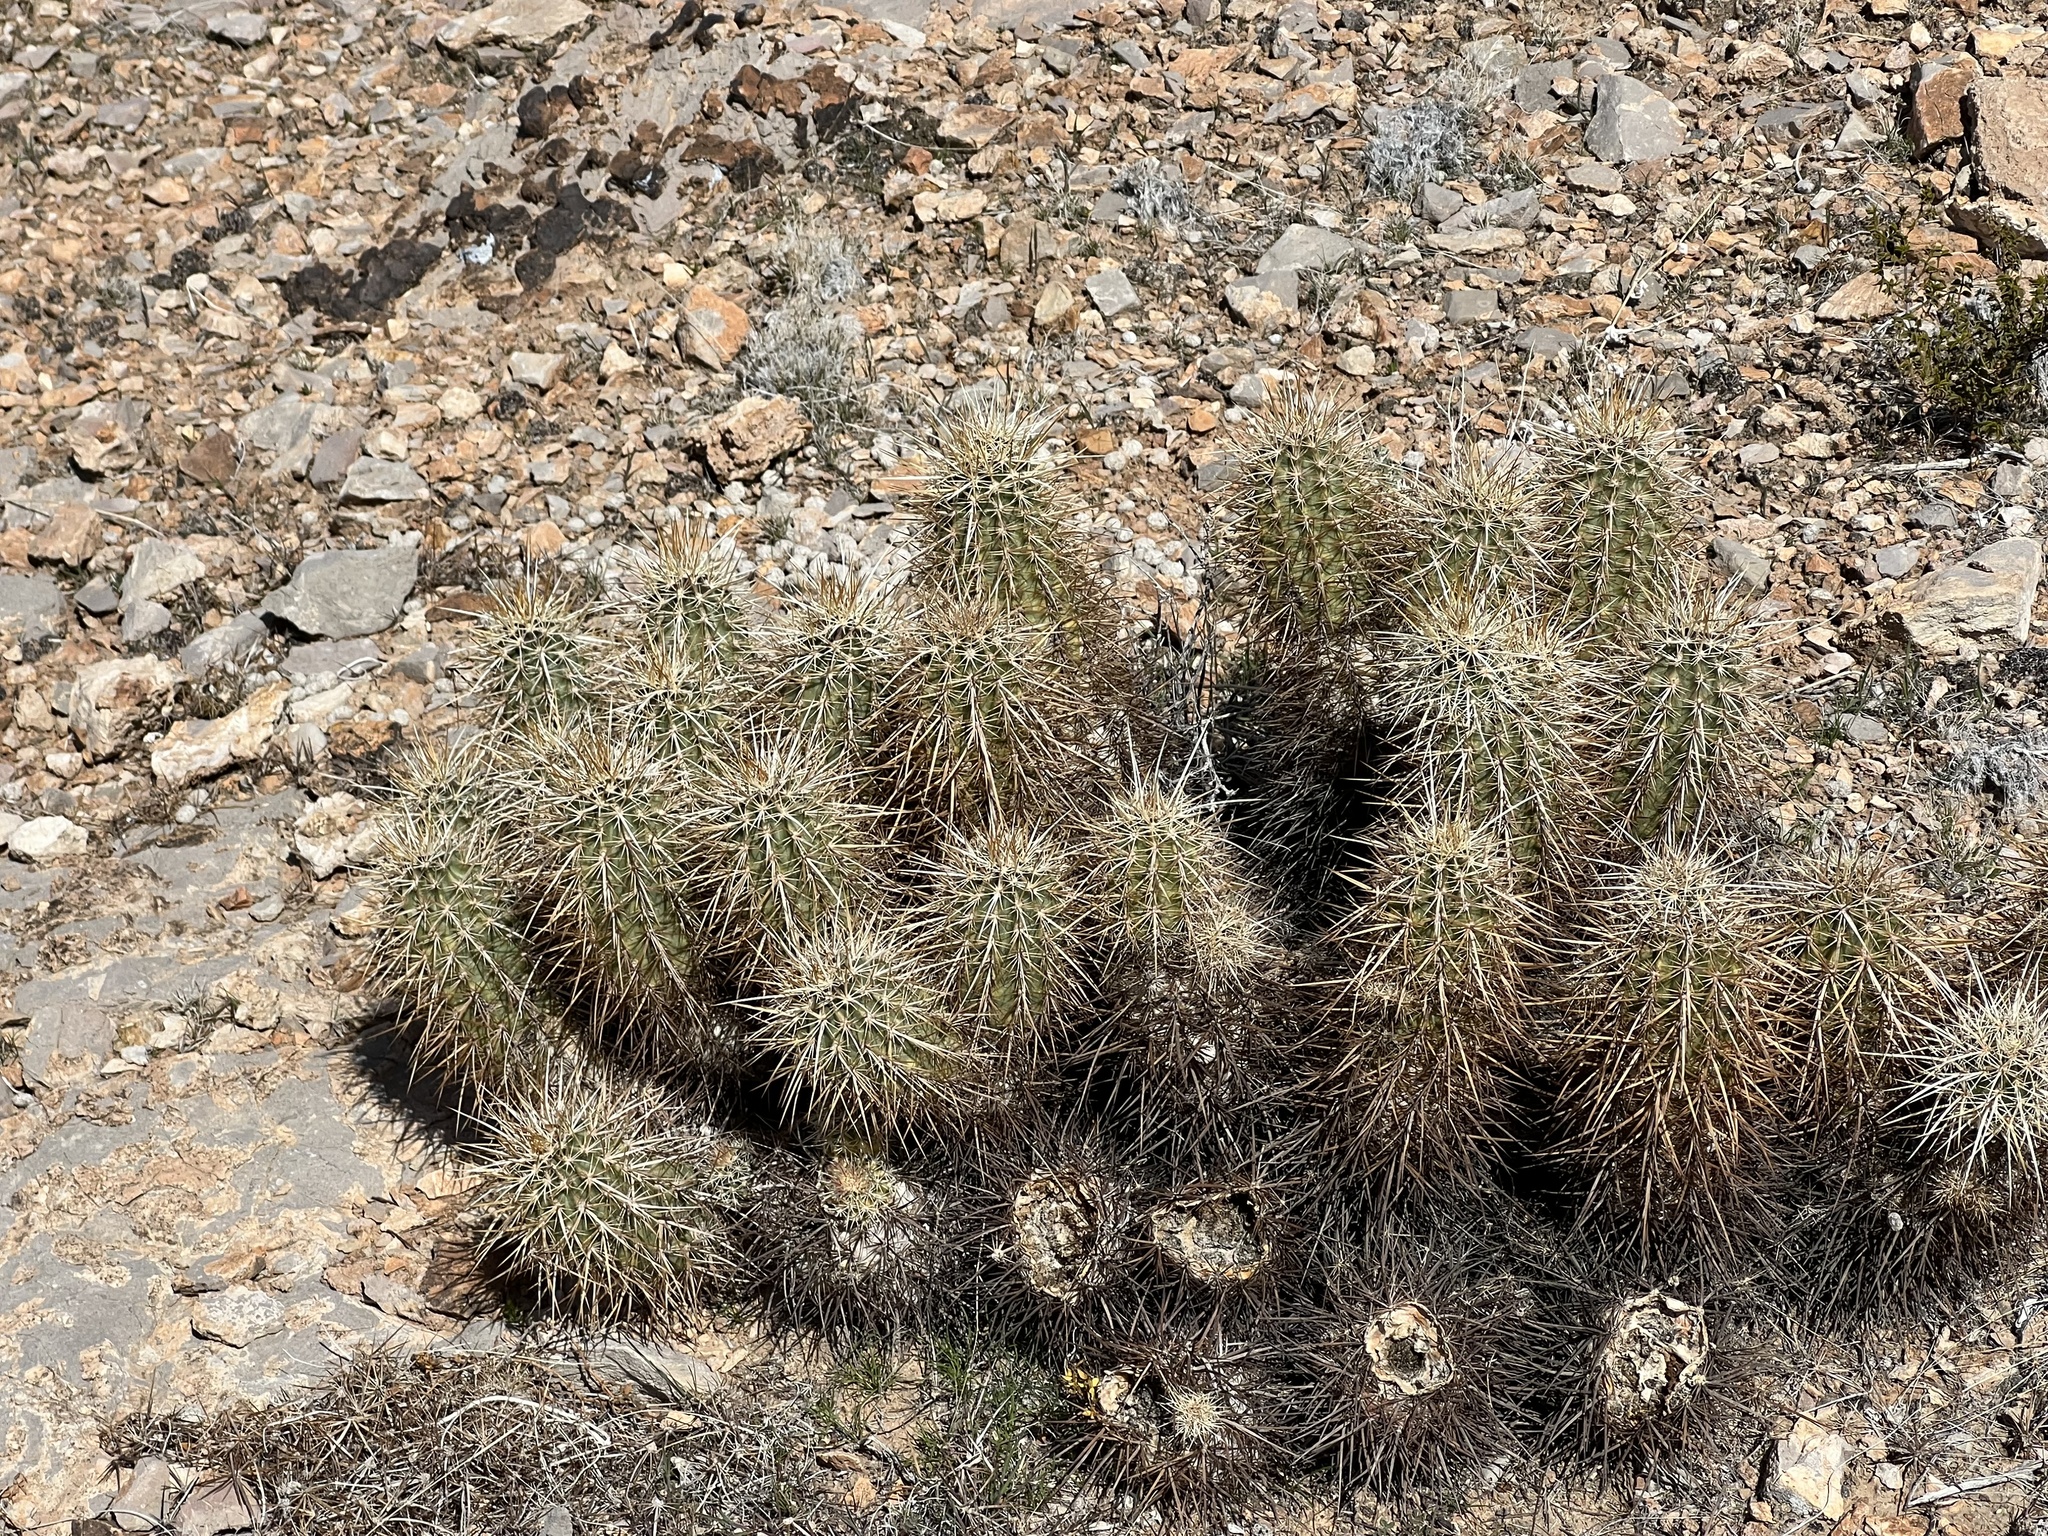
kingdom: Plantae
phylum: Tracheophyta
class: Magnoliopsida
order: Caryophyllales
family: Cactaceae
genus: Echinocereus
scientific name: Echinocereus engelmannii
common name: Engelmann's hedgehog cactus
